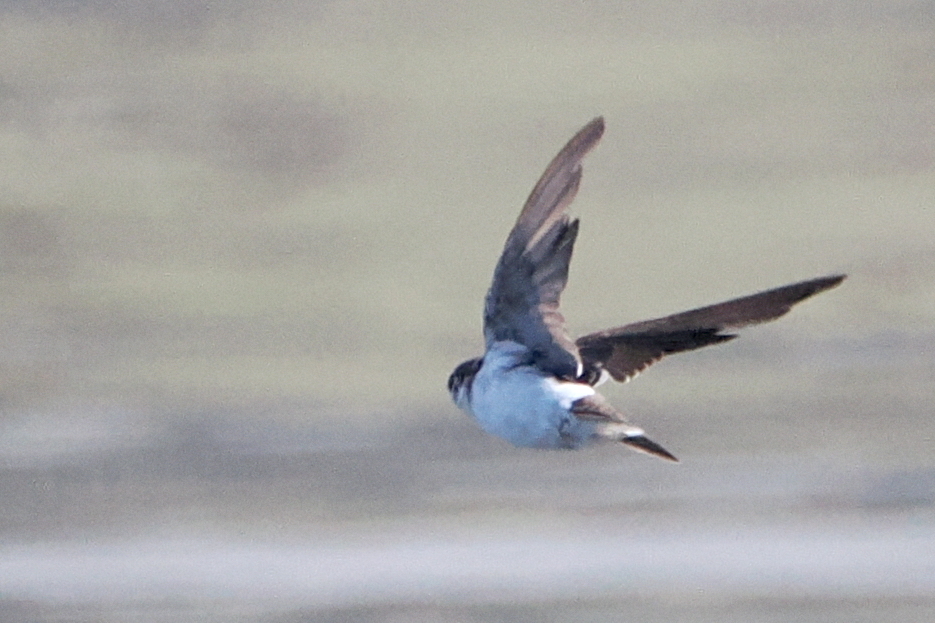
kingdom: Animalia
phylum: Chordata
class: Aves
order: Passeriformes
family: Hirundinidae
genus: Tachycineta
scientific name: Tachycineta thalassina
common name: Violet-green swallow
